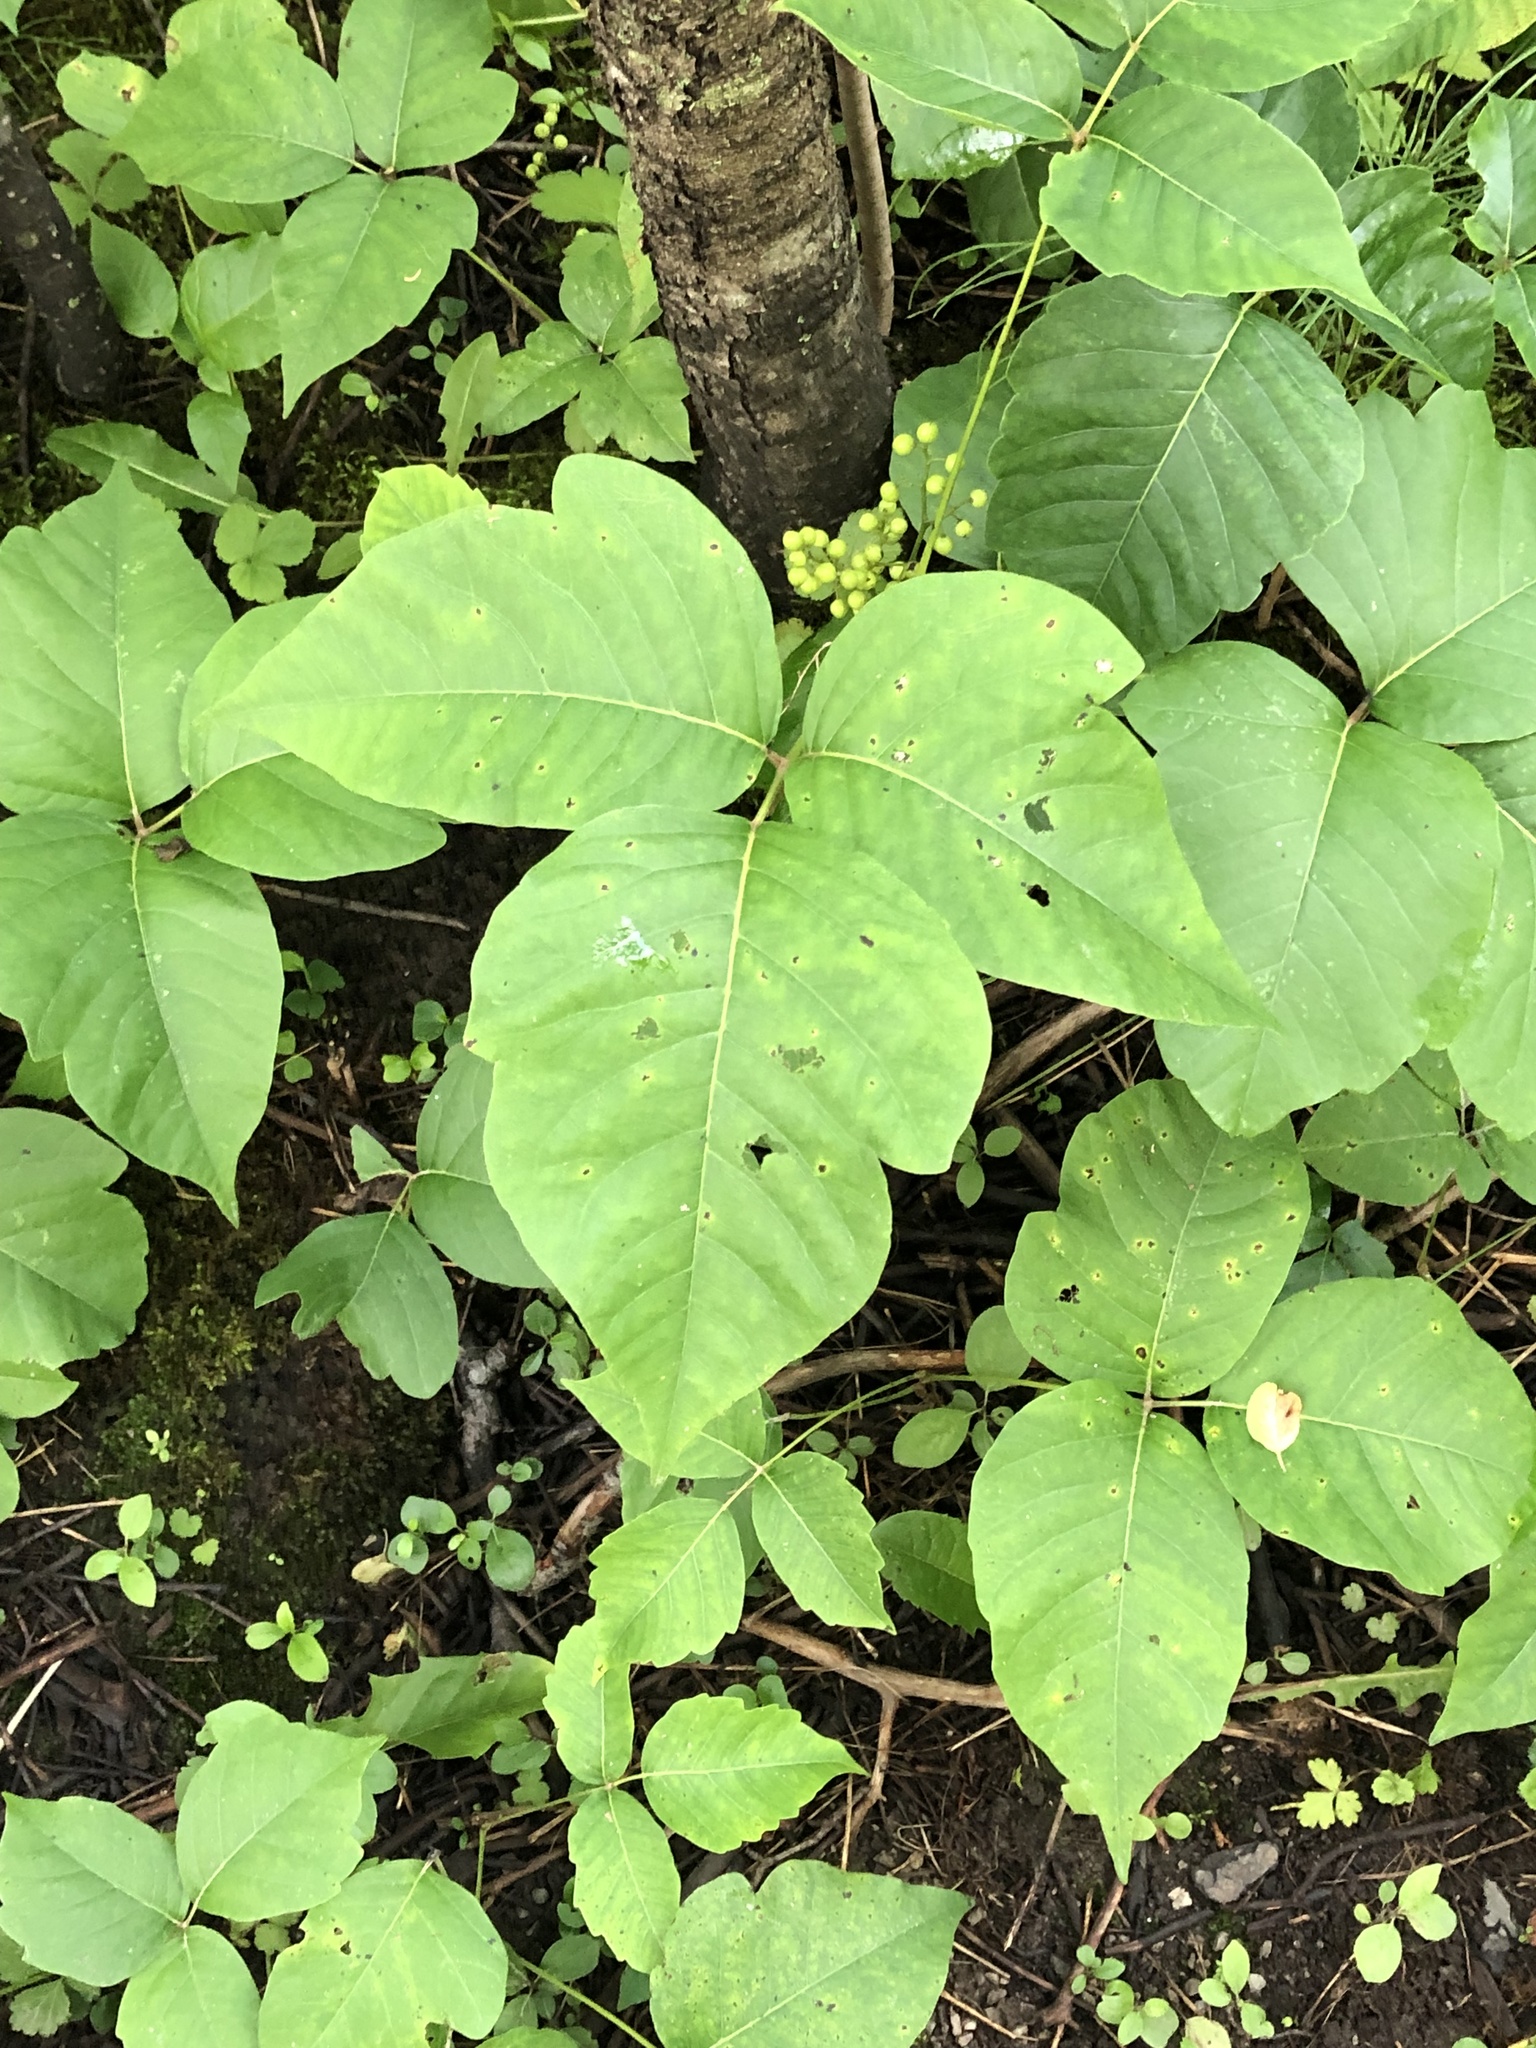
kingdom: Plantae
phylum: Tracheophyta
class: Magnoliopsida
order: Sapindales
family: Anacardiaceae
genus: Toxicodendron
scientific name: Toxicodendron rydbergii
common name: Rydberg's poison-ivy
